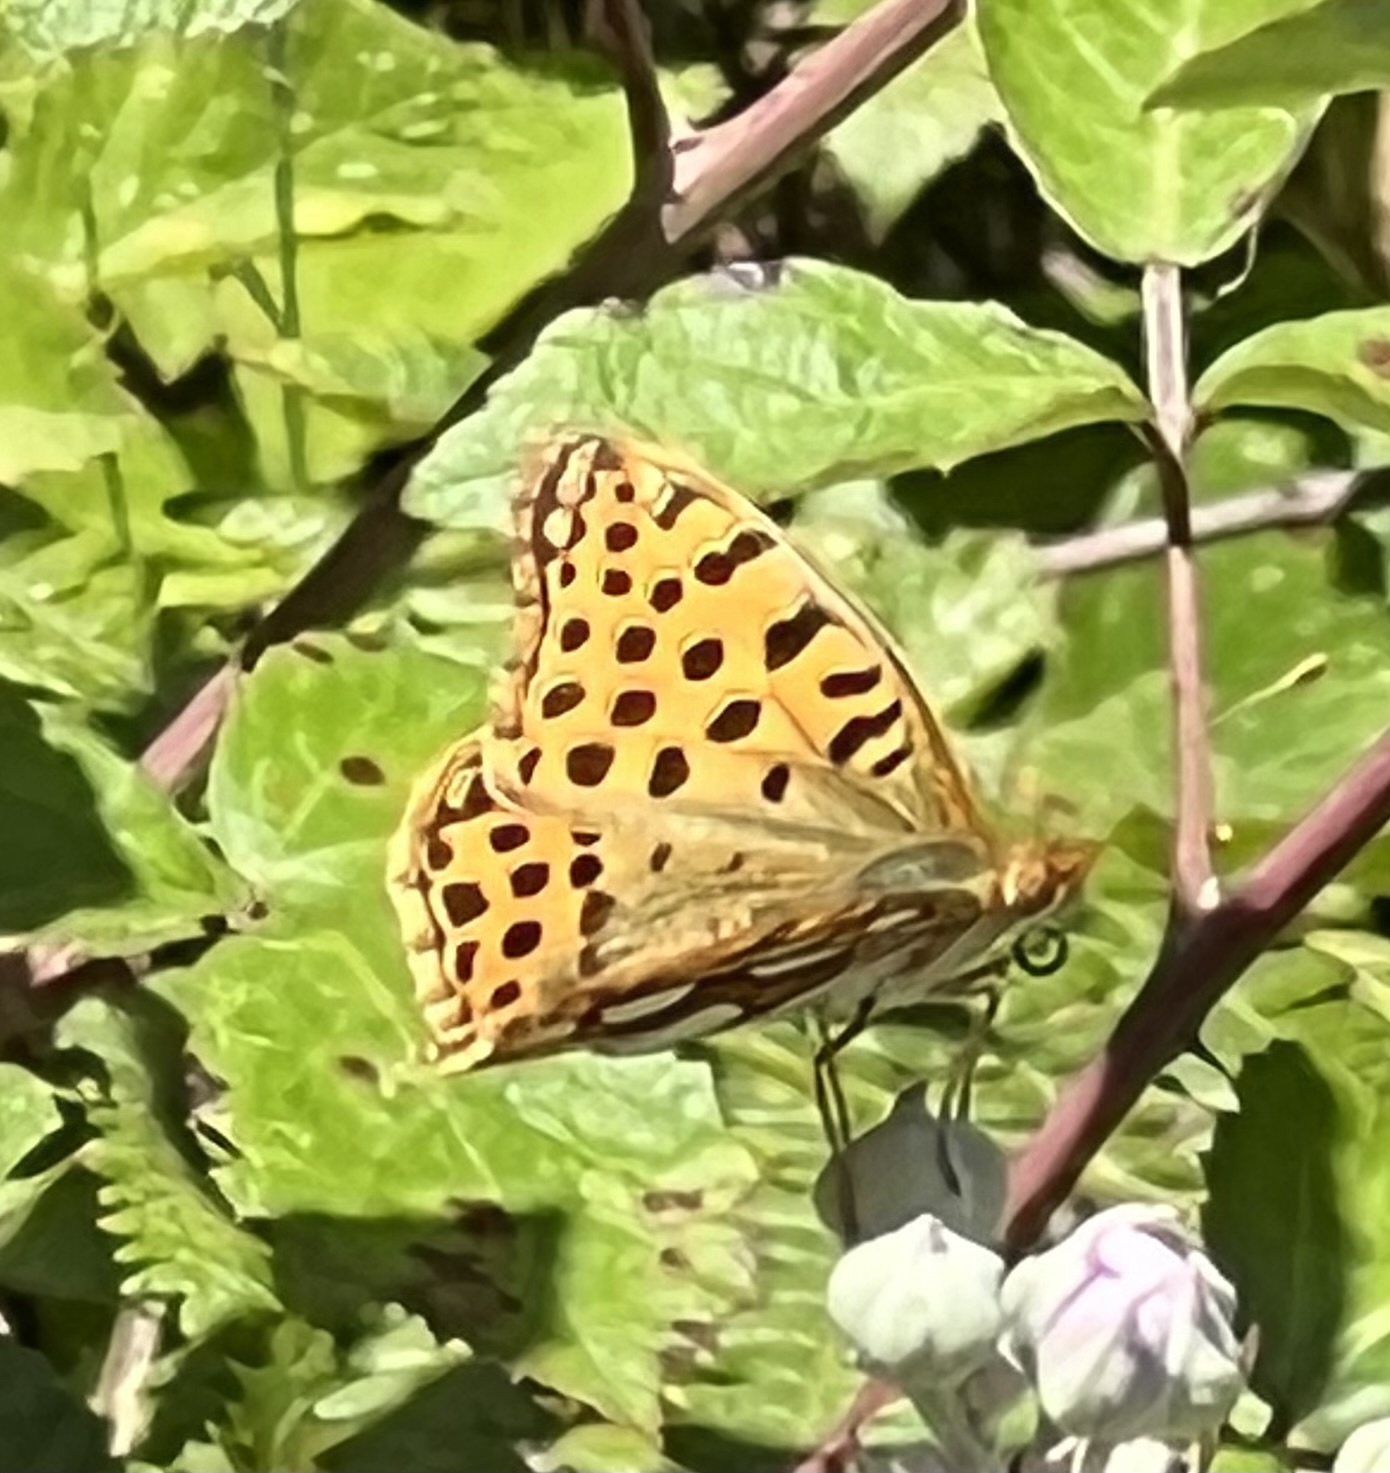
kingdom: Animalia
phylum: Arthropoda
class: Insecta
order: Lepidoptera
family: Nymphalidae
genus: Issoria
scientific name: Issoria lathonia
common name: Queen of spain fritillary
